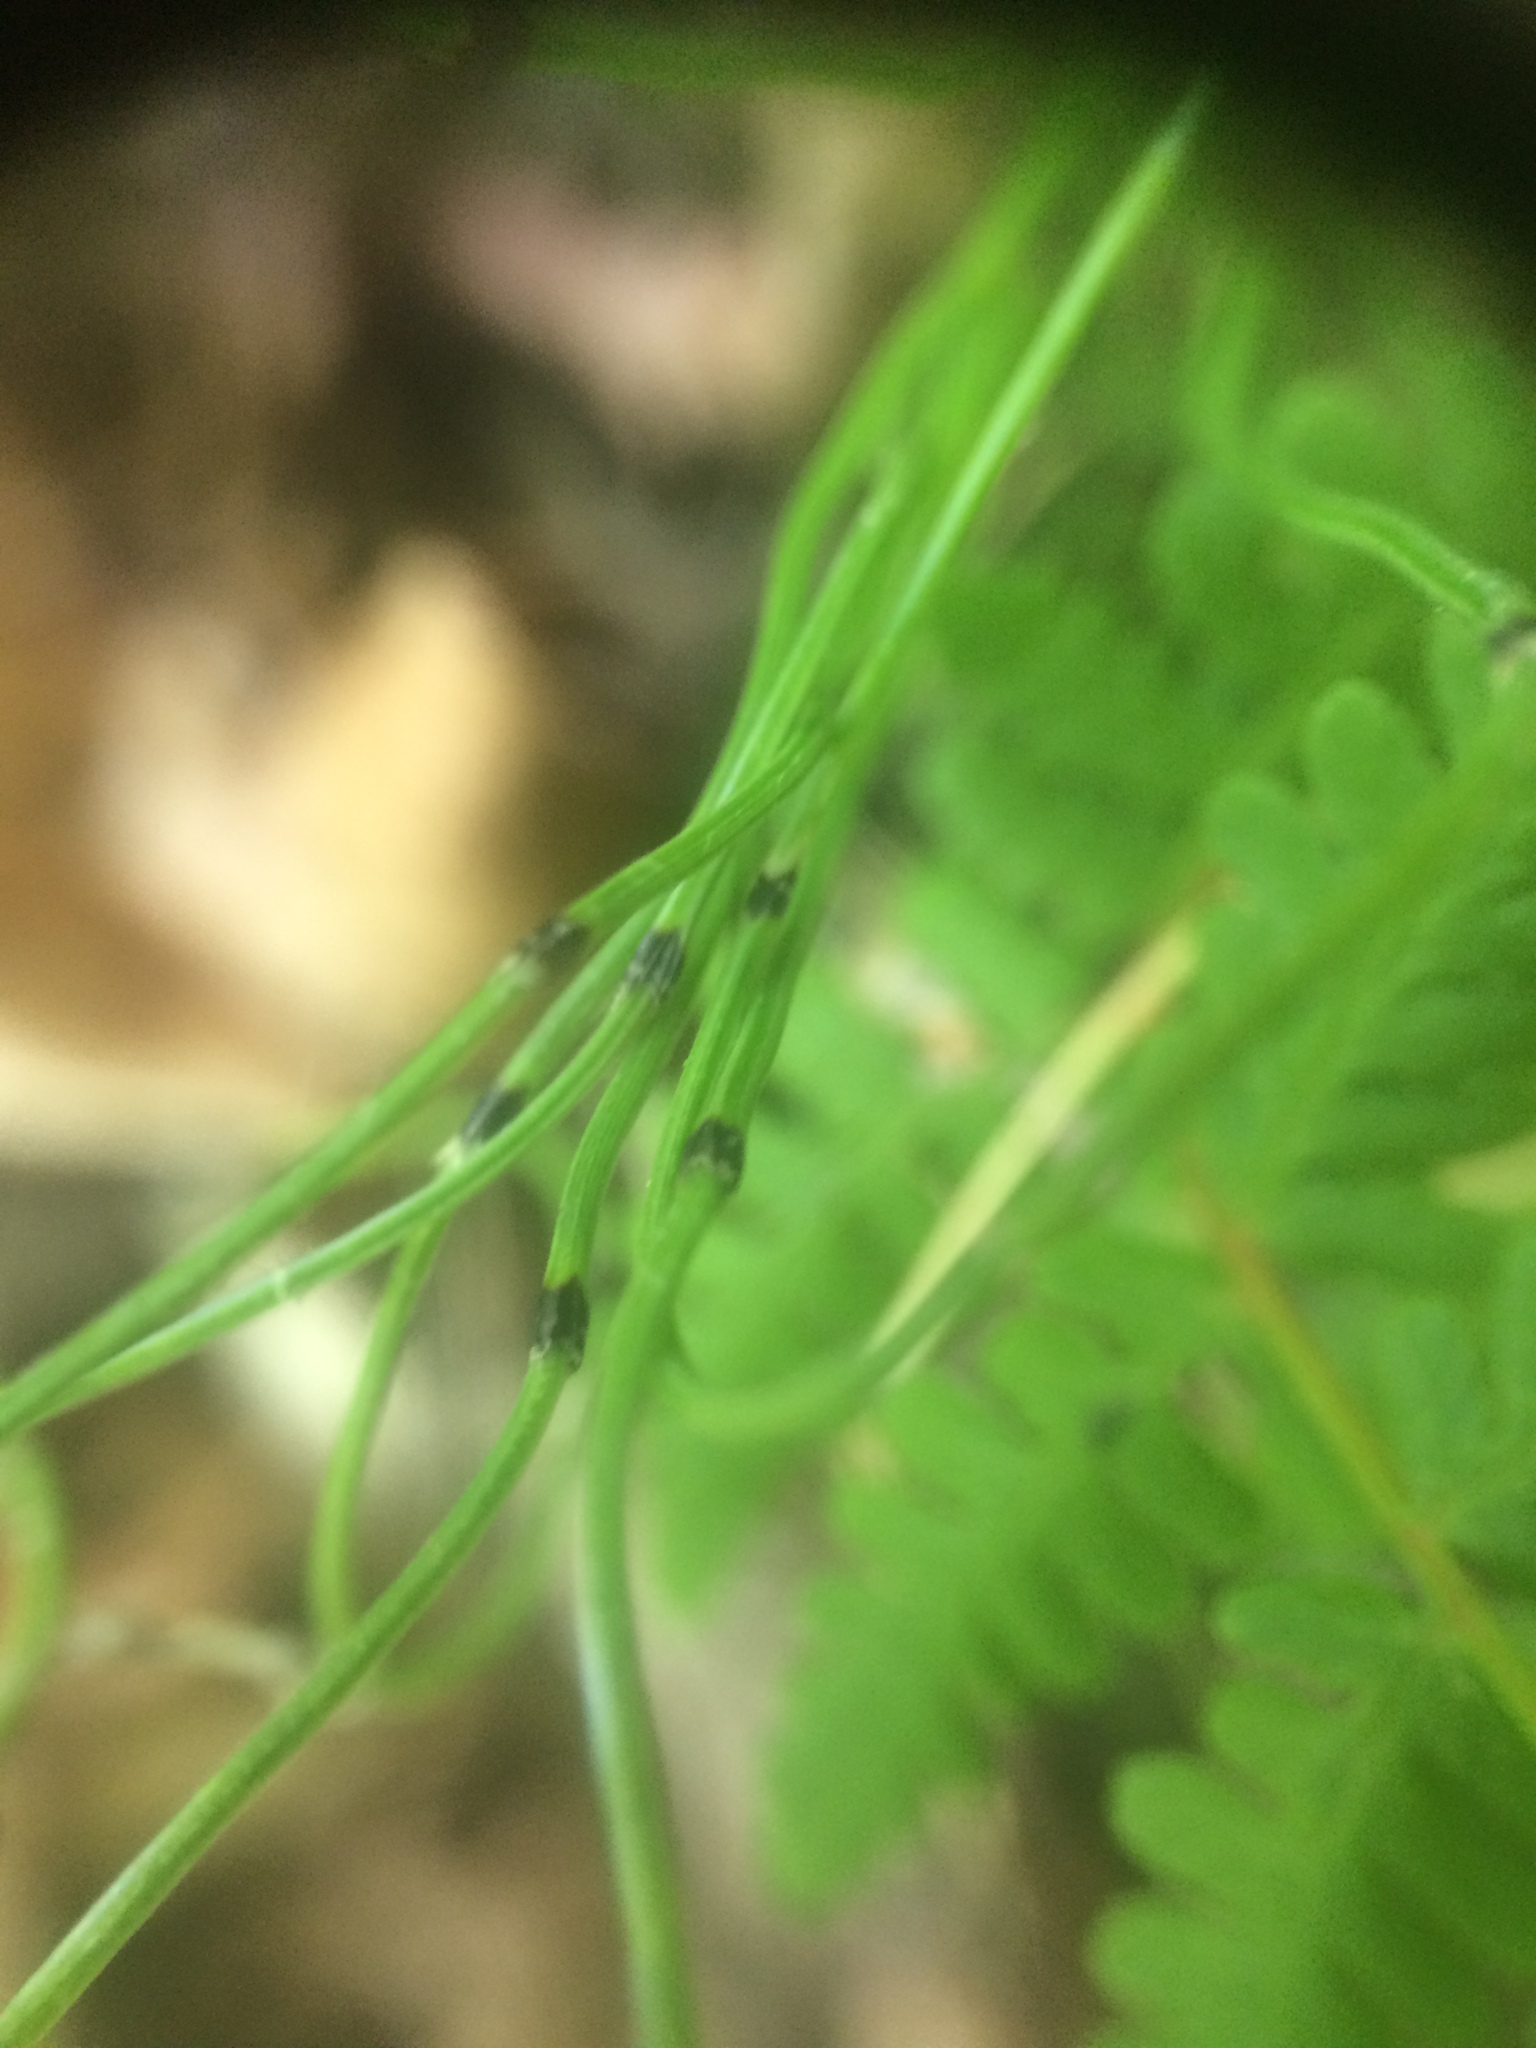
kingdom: Plantae
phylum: Tracheophyta
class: Polypodiopsida
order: Equisetales
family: Equisetaceae
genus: Equisetum
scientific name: Equisetum scirpoides
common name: Delicate horsetail
